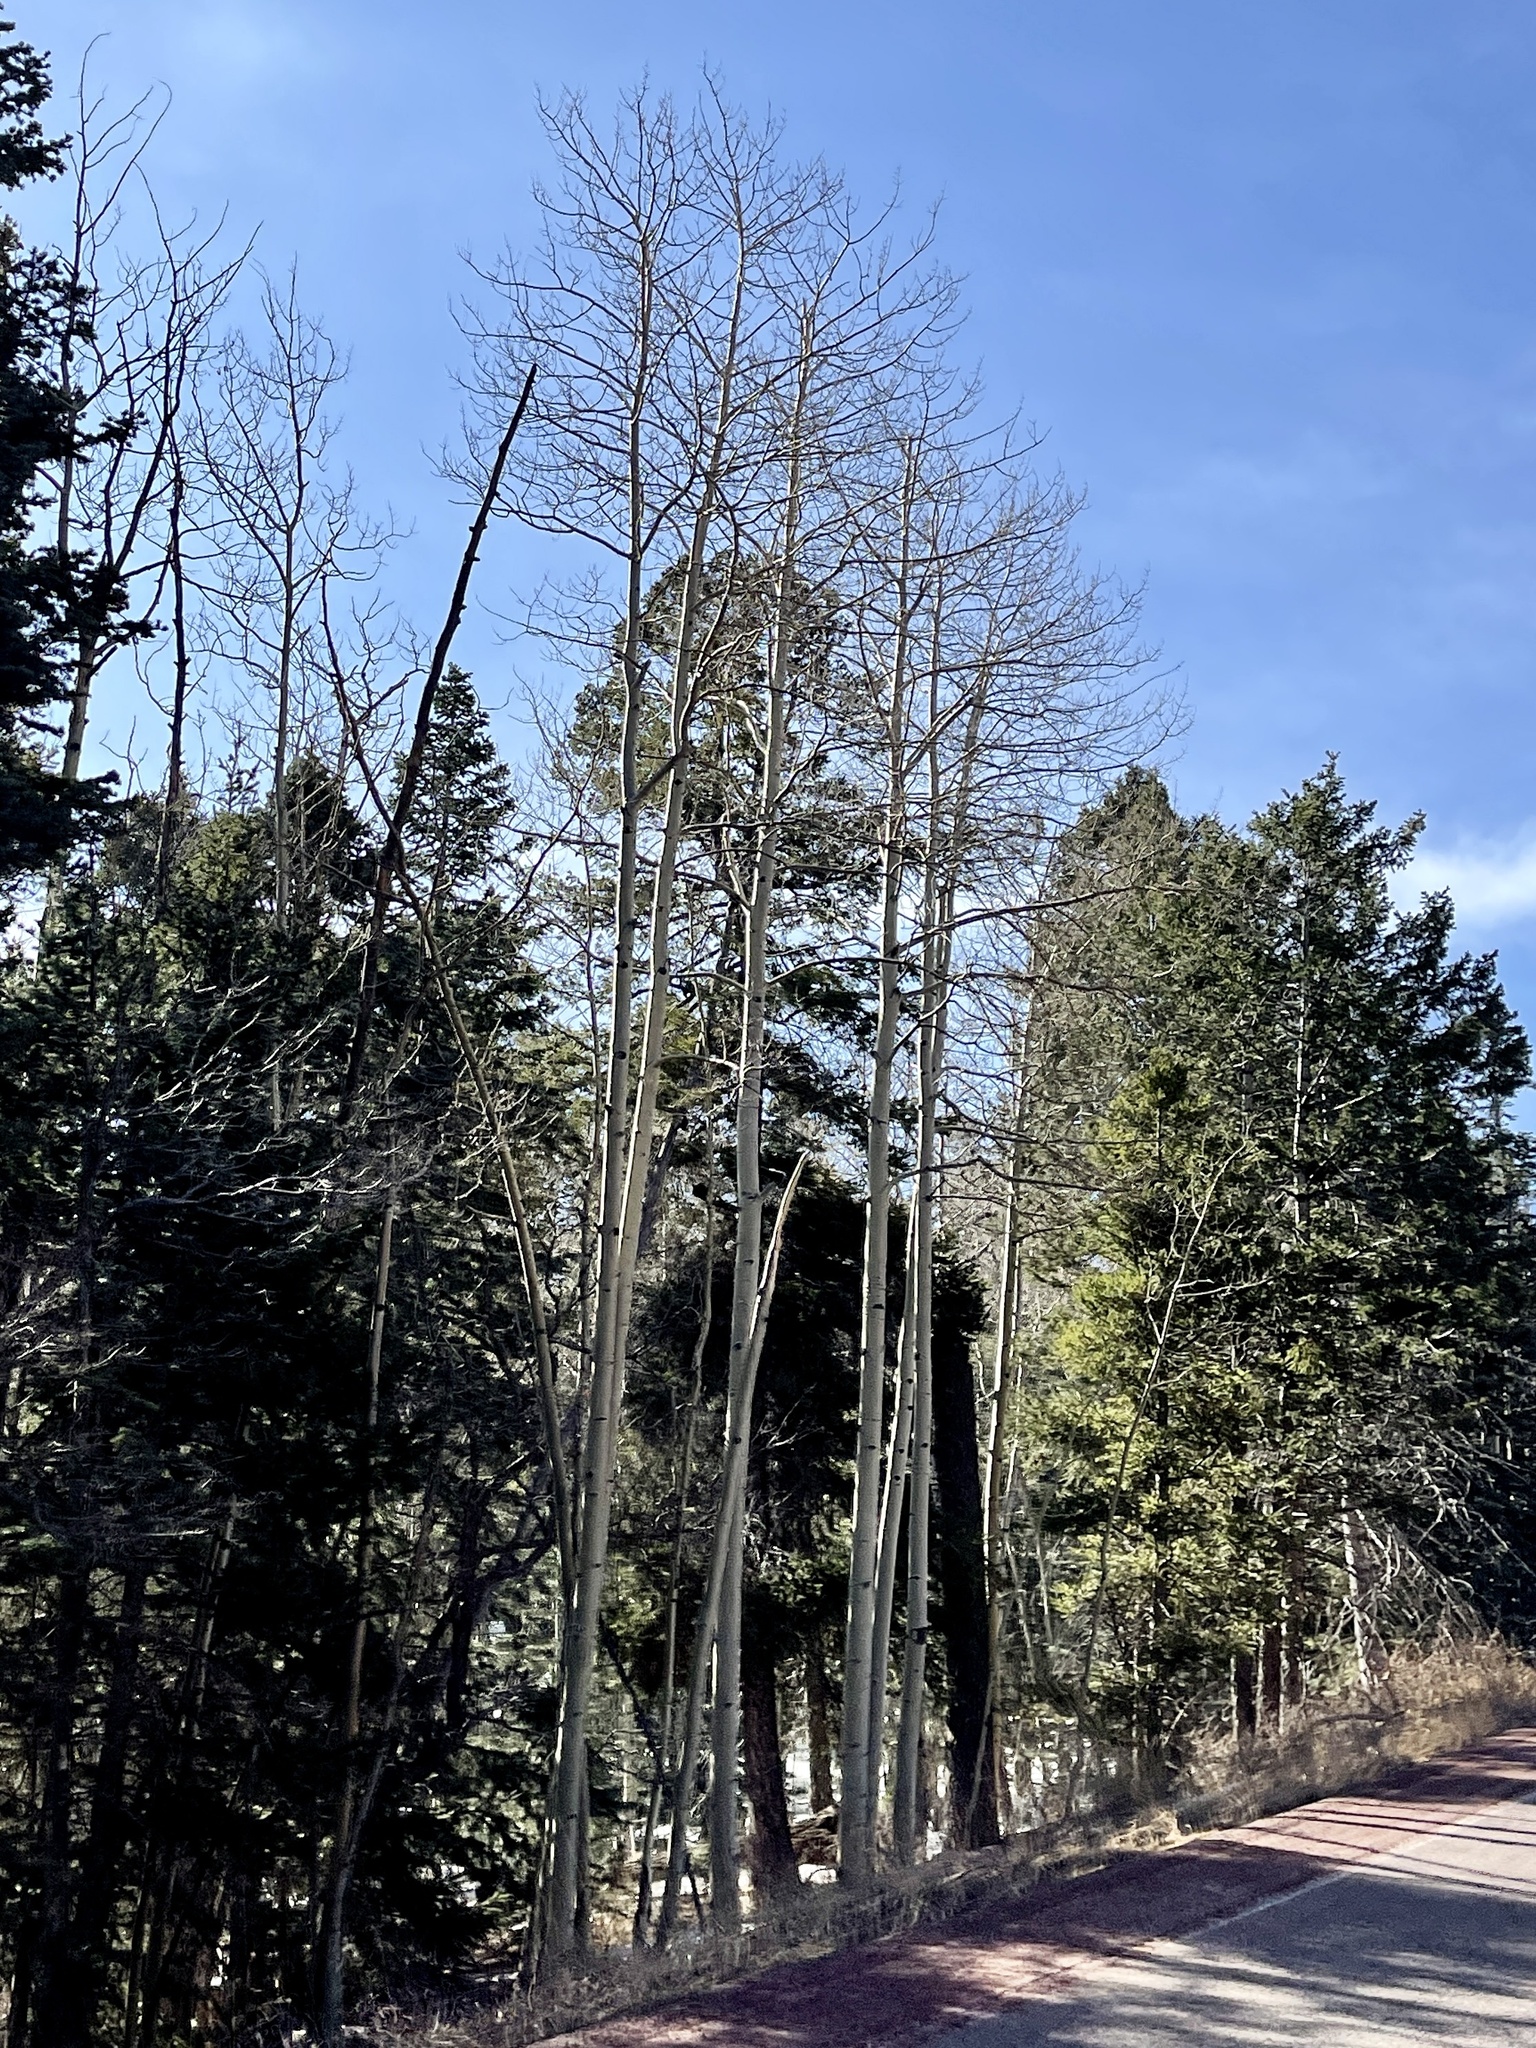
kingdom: Plantae
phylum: Tracheophyta
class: Magnoliopsida
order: Malpighiales
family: Salicaceae
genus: Populus
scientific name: Populus tremuloides
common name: Quaking aspen
